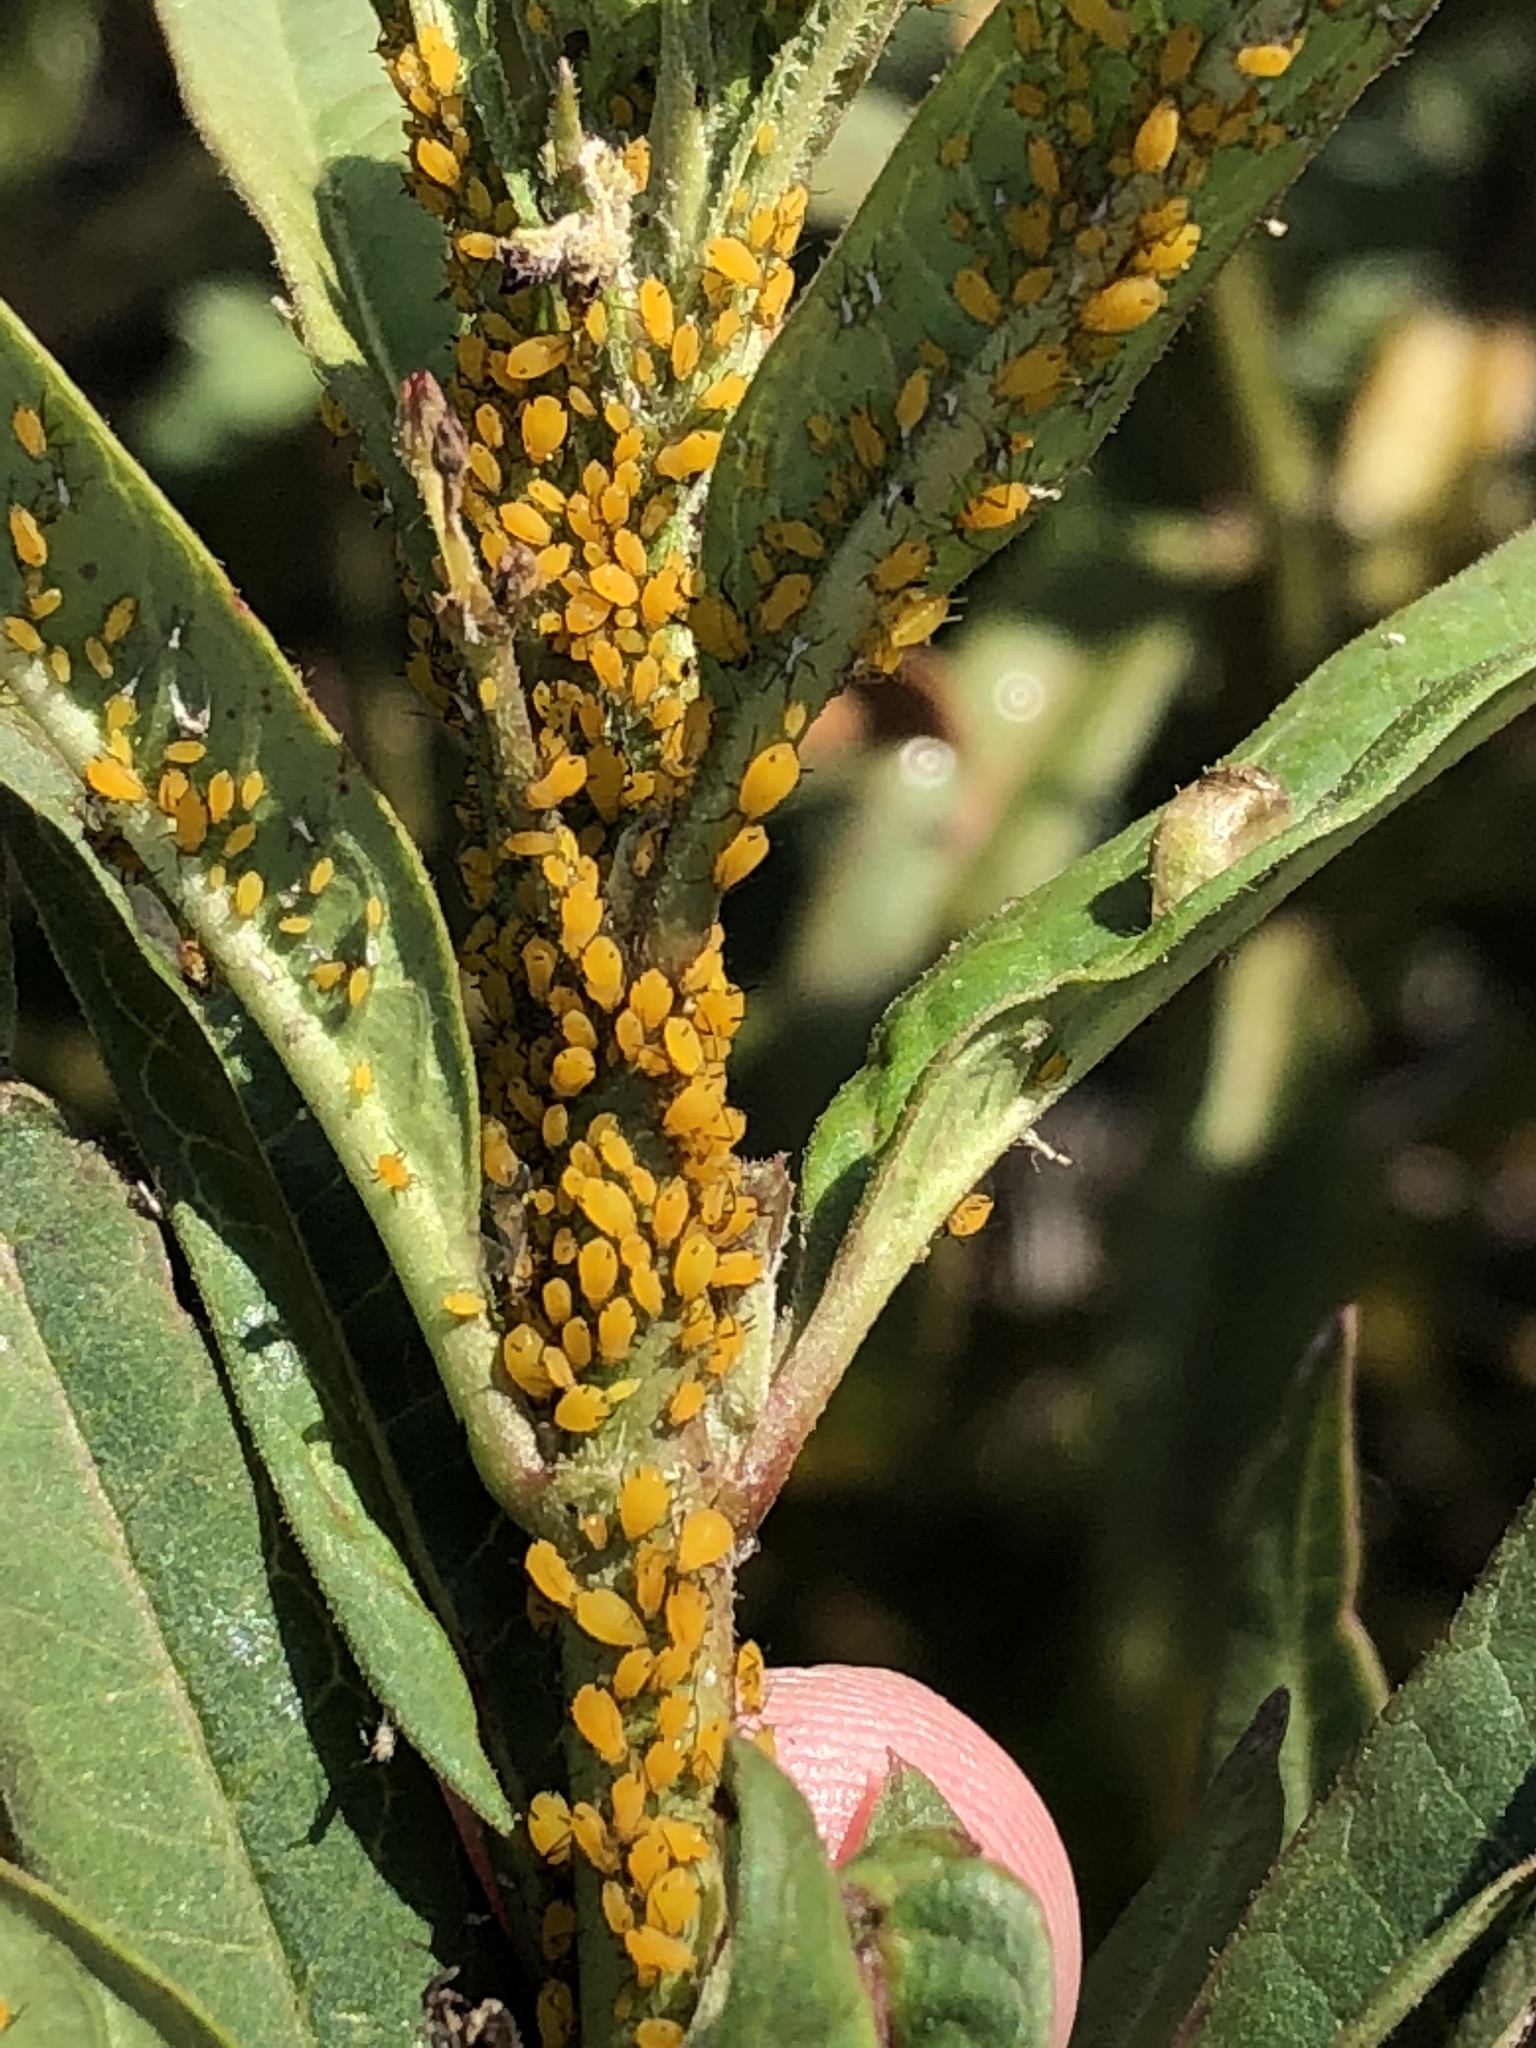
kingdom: Animalia
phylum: Arthropoda
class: Insecta
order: Hemiptera
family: Aphididae
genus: Aphis
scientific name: Aphis nerii
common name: Oleander aphid
